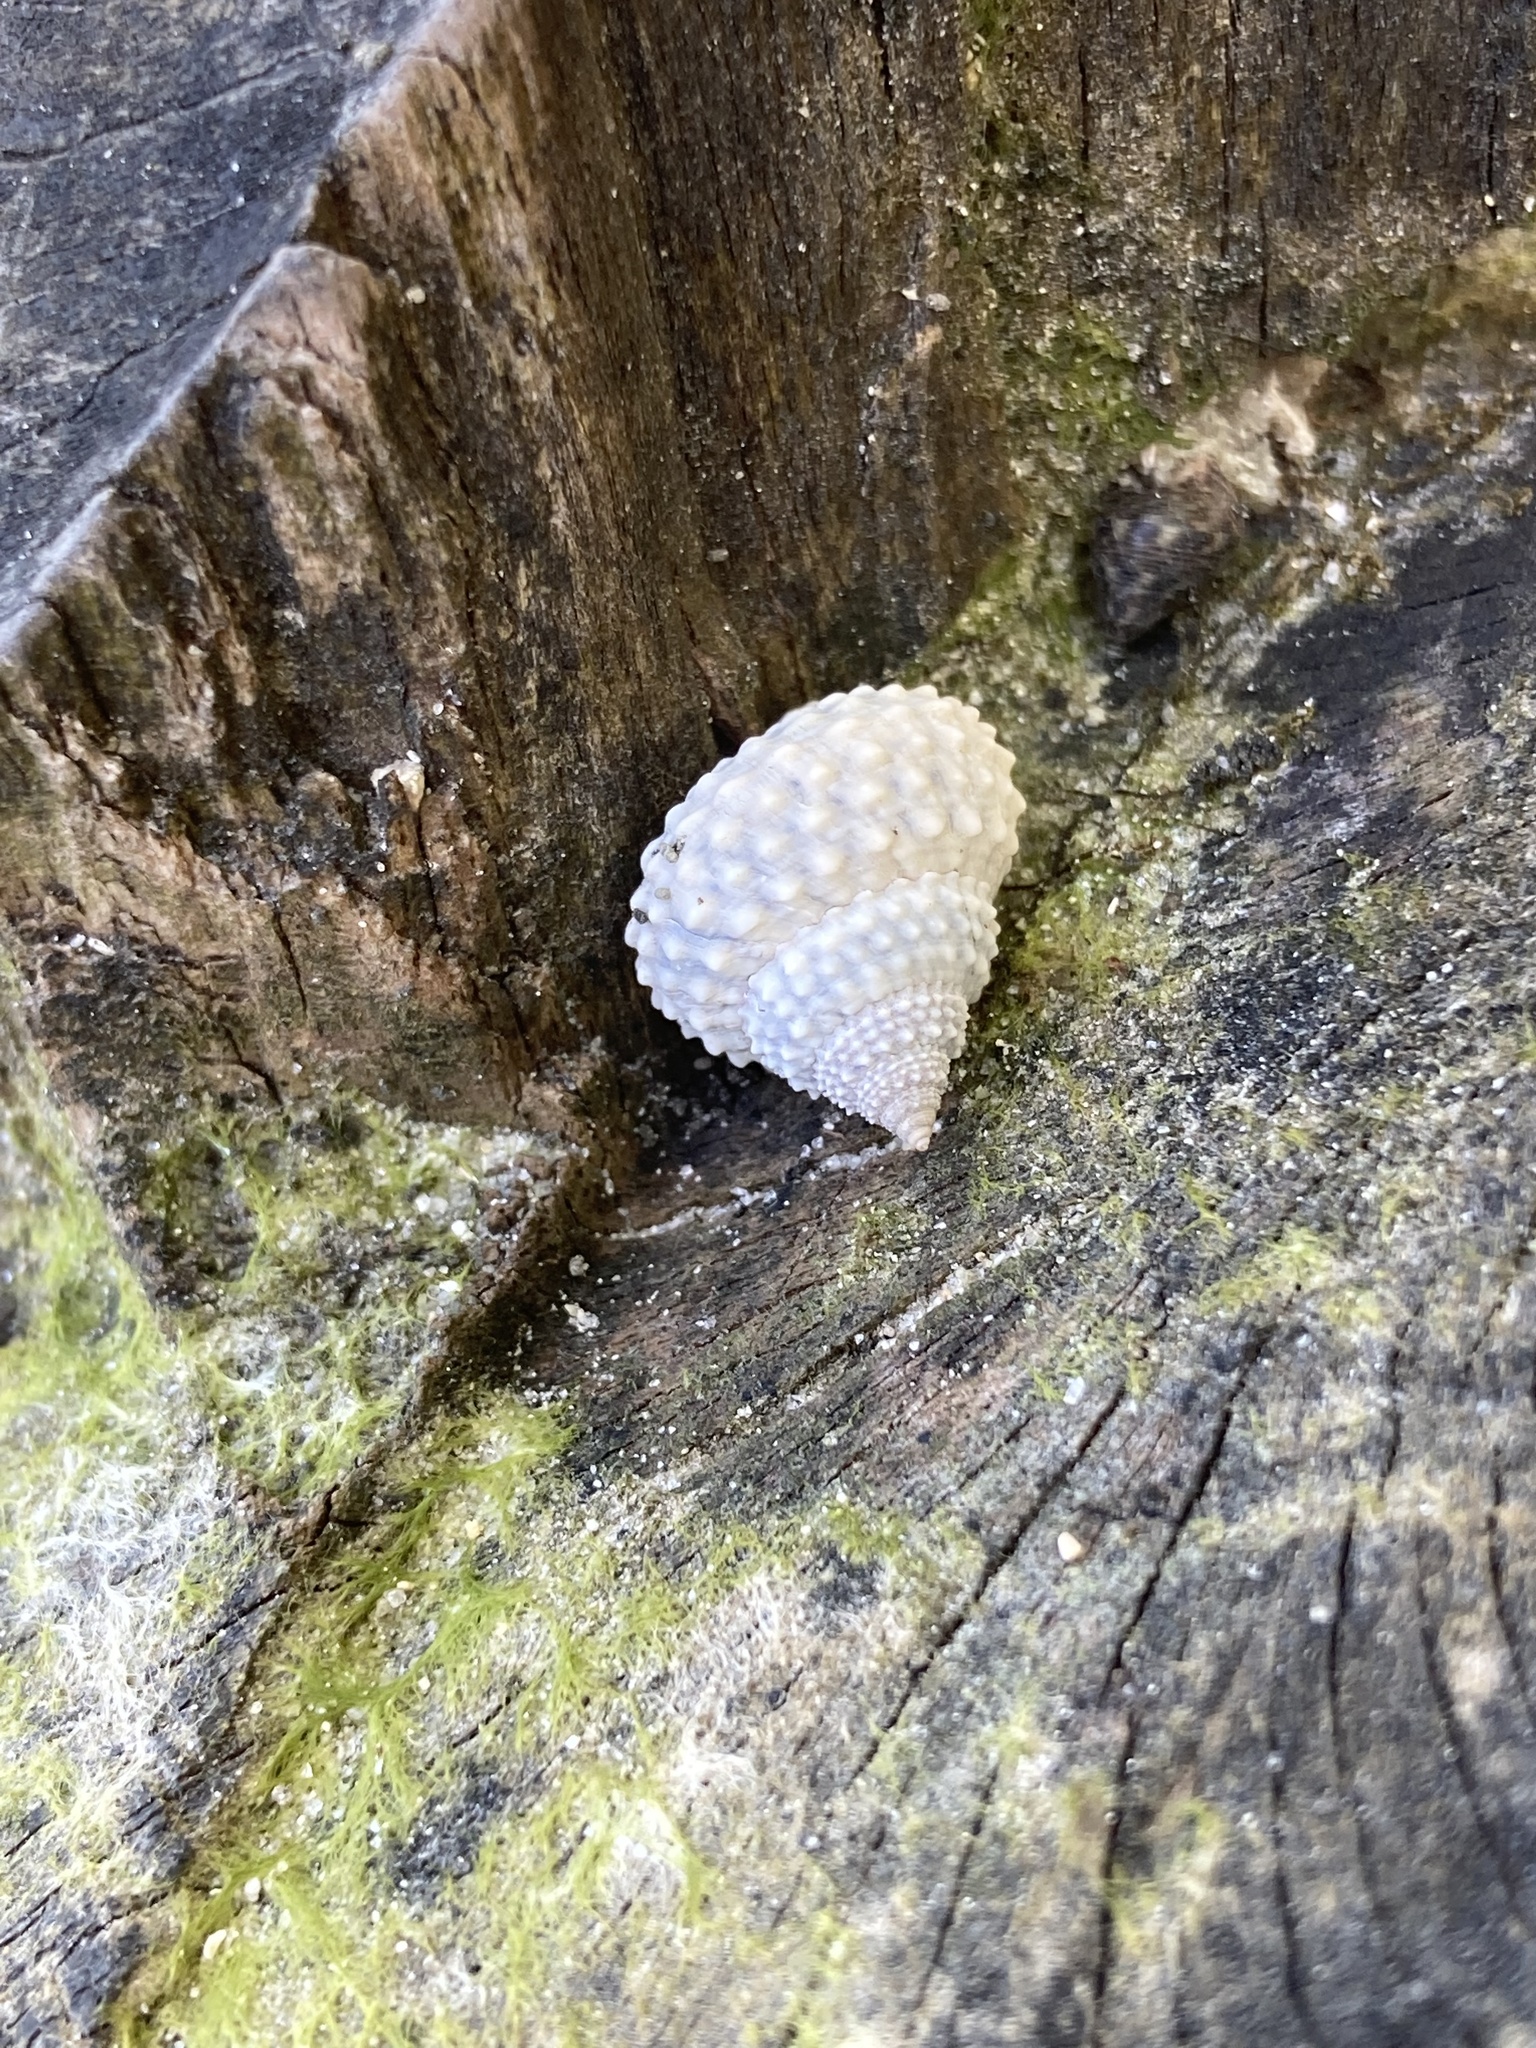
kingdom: Animalia
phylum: Mollusca
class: Gastropoda
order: Littorinimorpha
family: Littorinidae
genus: Cenchritis
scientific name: Cenchritis muricatus
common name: Beaded periwinkle
